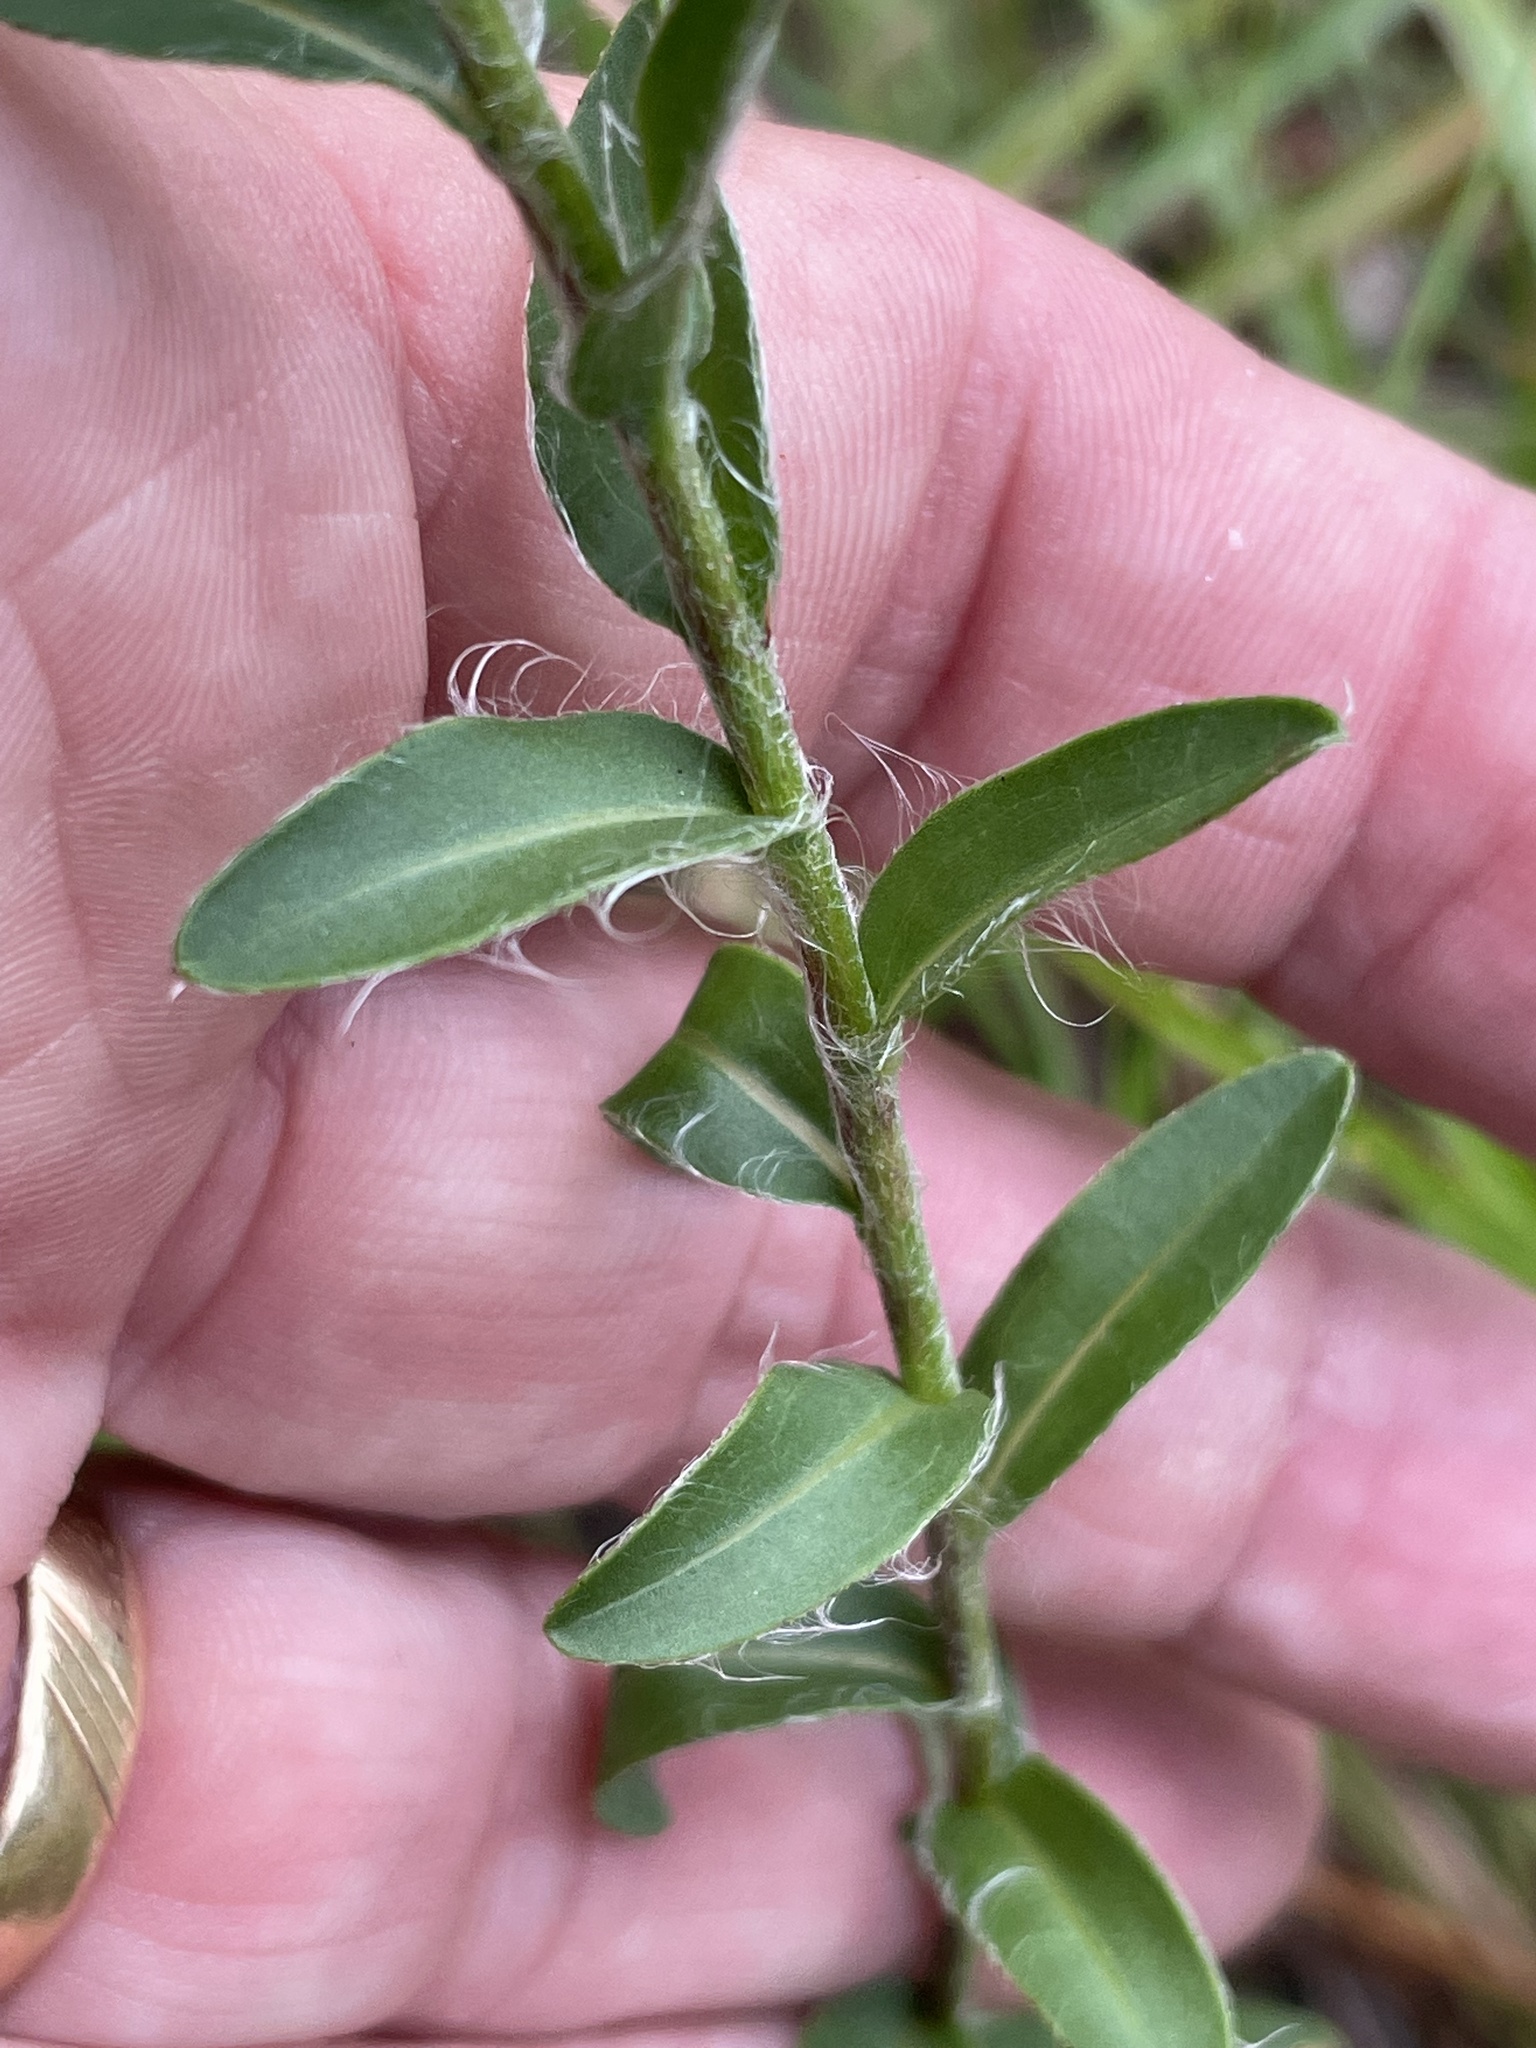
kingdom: Plantae
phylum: Tracheophyta
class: Magnoliopsida
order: Asterales
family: Asteraceae
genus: Chrysopsis
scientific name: Chrysopsis mariana
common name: Maryland golden-aster
